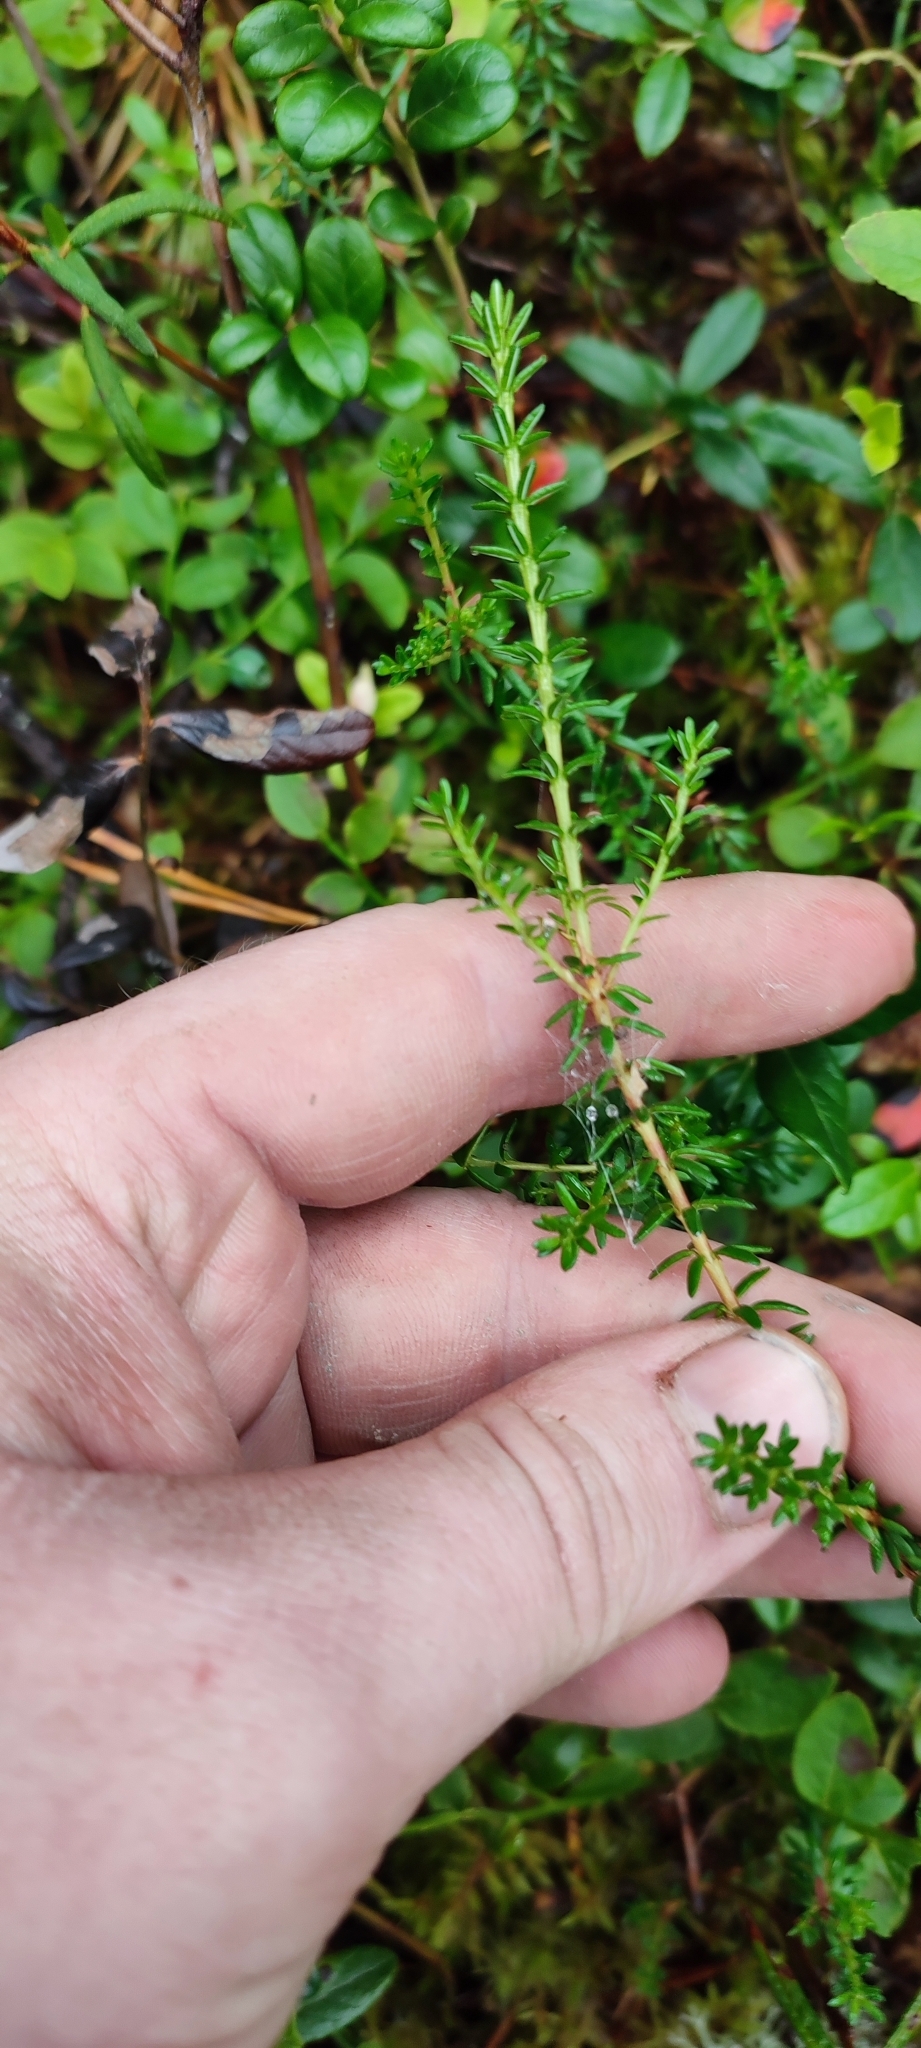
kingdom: Plantae
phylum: Tracheophyta
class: Magnoliopsida
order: Ericales
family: Ericaceae
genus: Empetrum
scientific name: Empetrum nigrum
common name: Black crowberry
